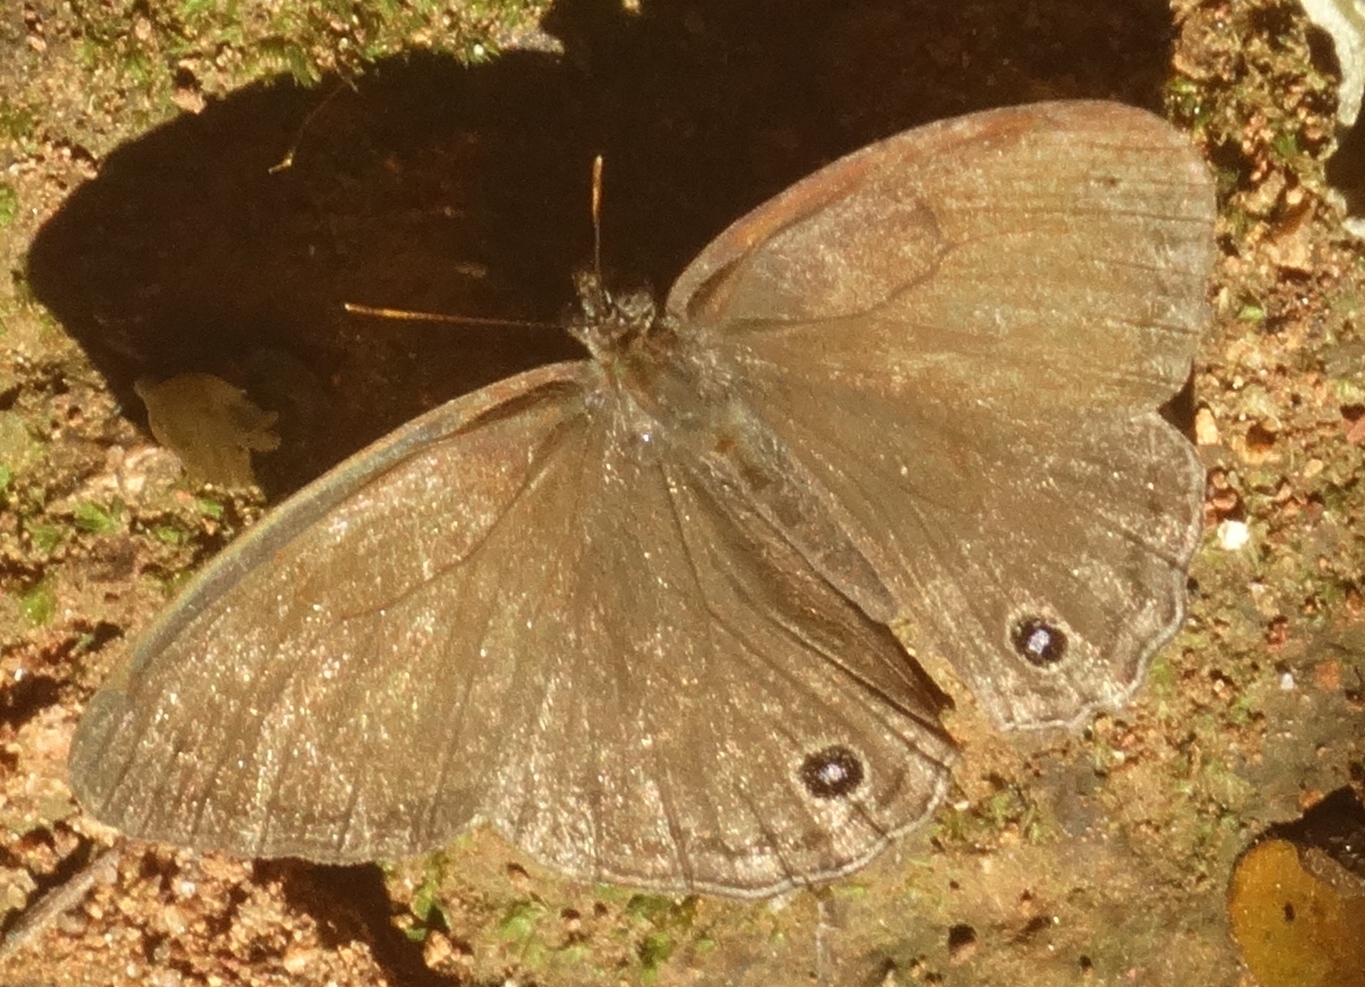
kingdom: Animalia
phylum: Arthropoda
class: Insecta
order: Lepidoptera
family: Satyridae
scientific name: Satyridae
